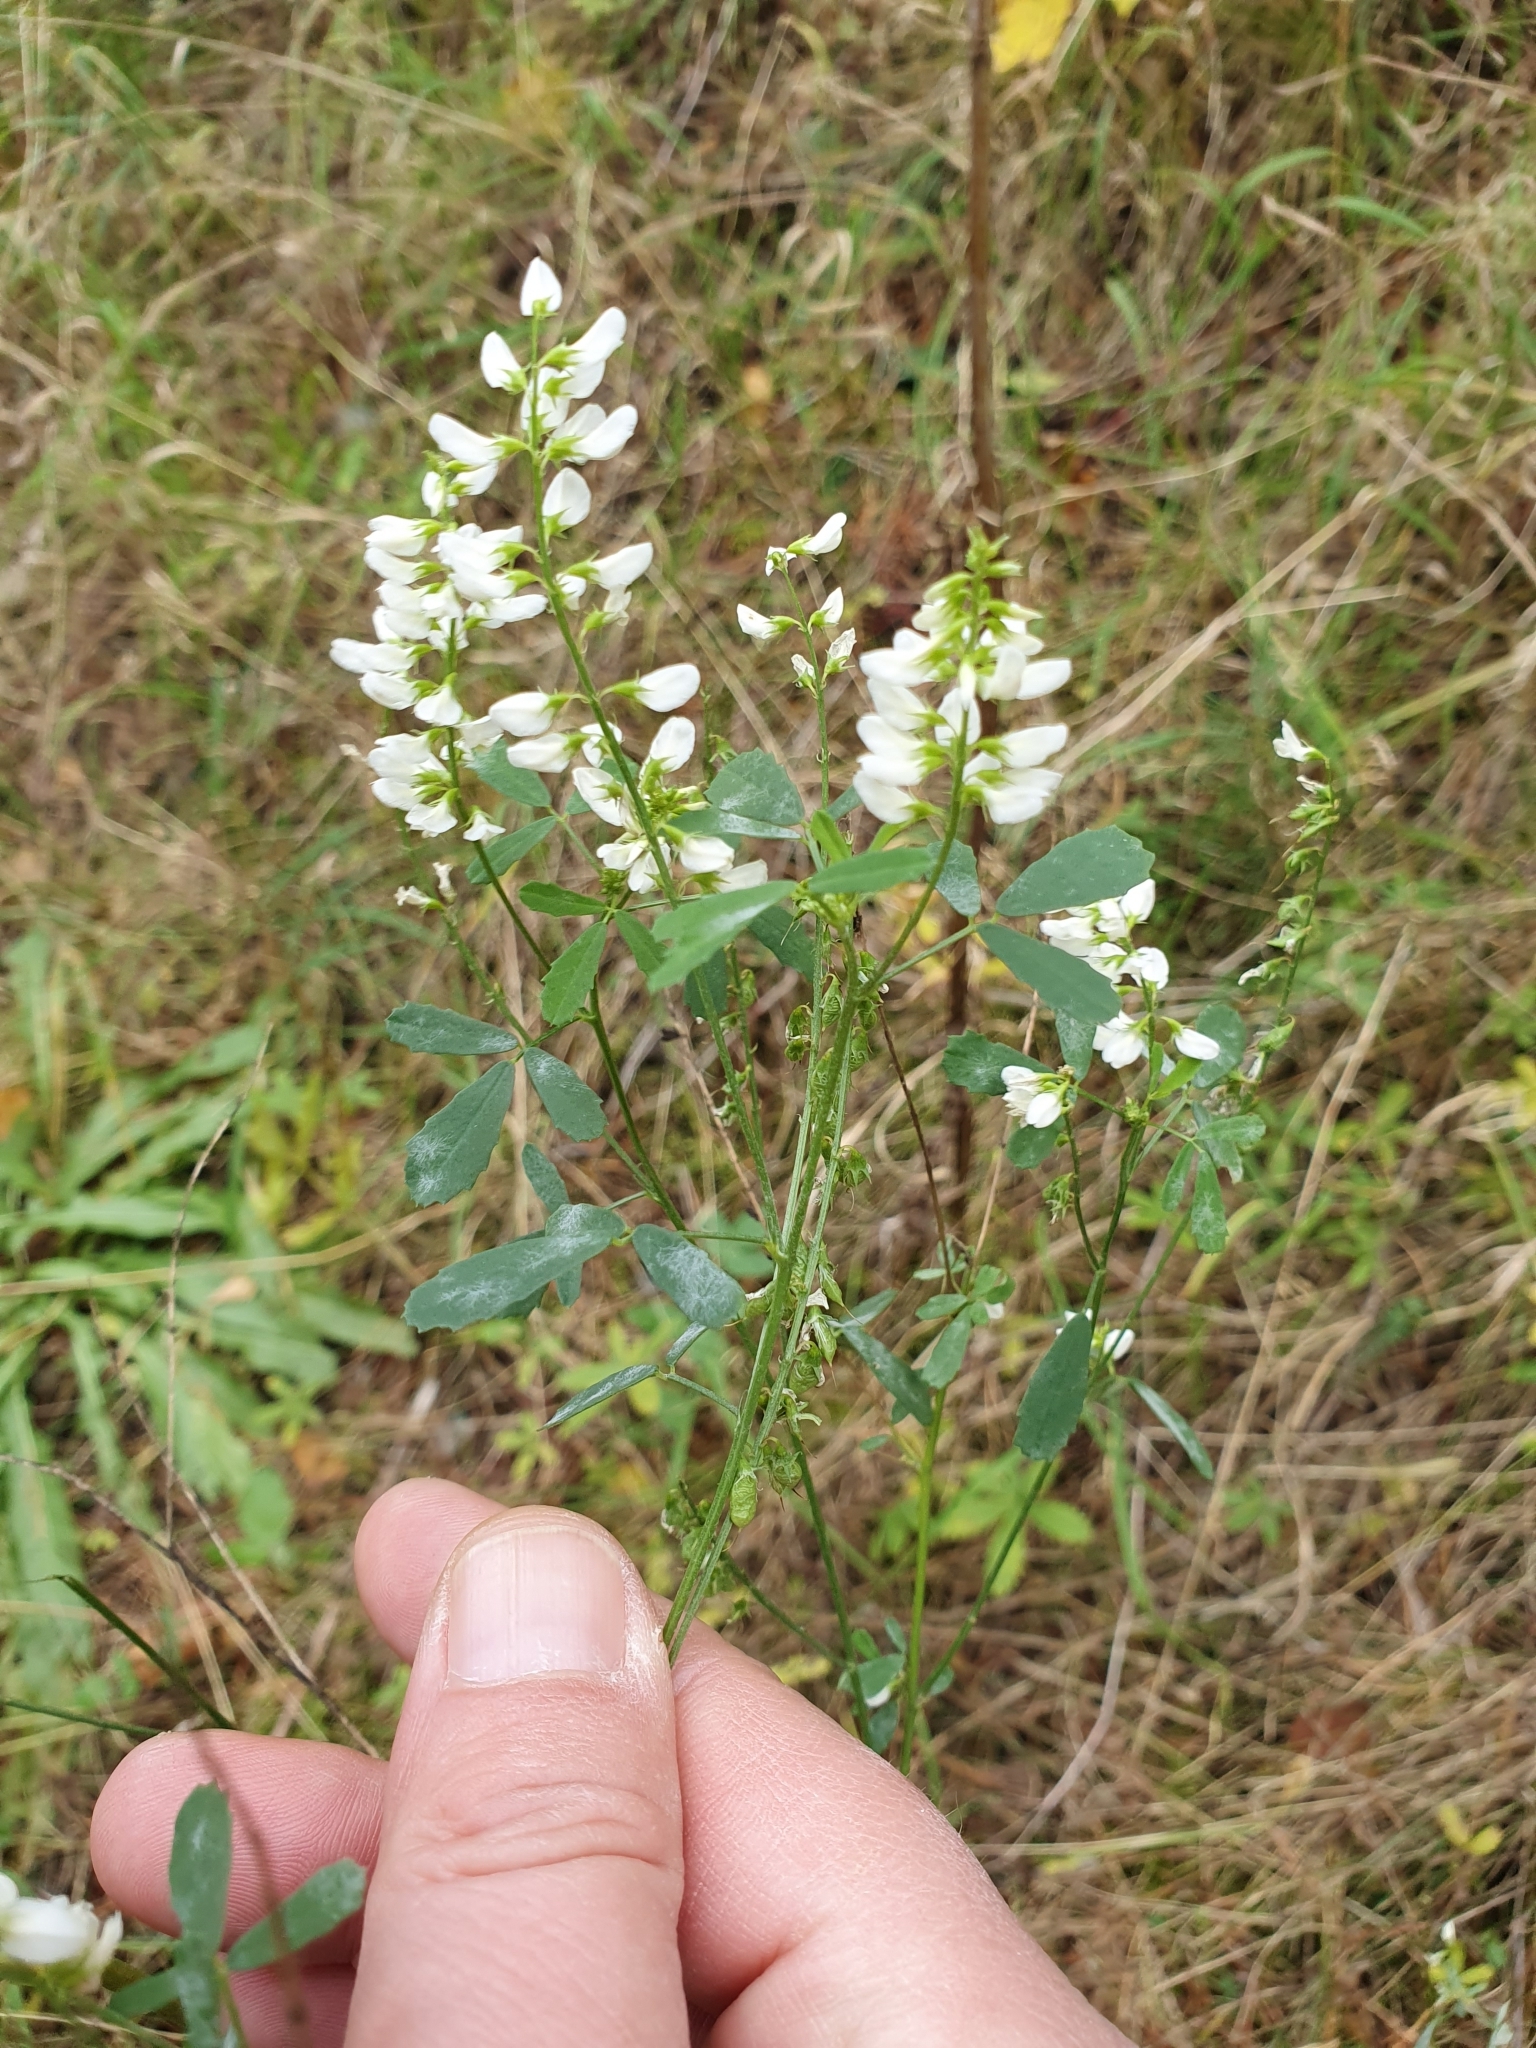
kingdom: Plantae
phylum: Tracheophyta
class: Magnoliopsida
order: Fabales
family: Fabaceae
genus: Melilotus
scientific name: Melilotus albus
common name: White melilot
